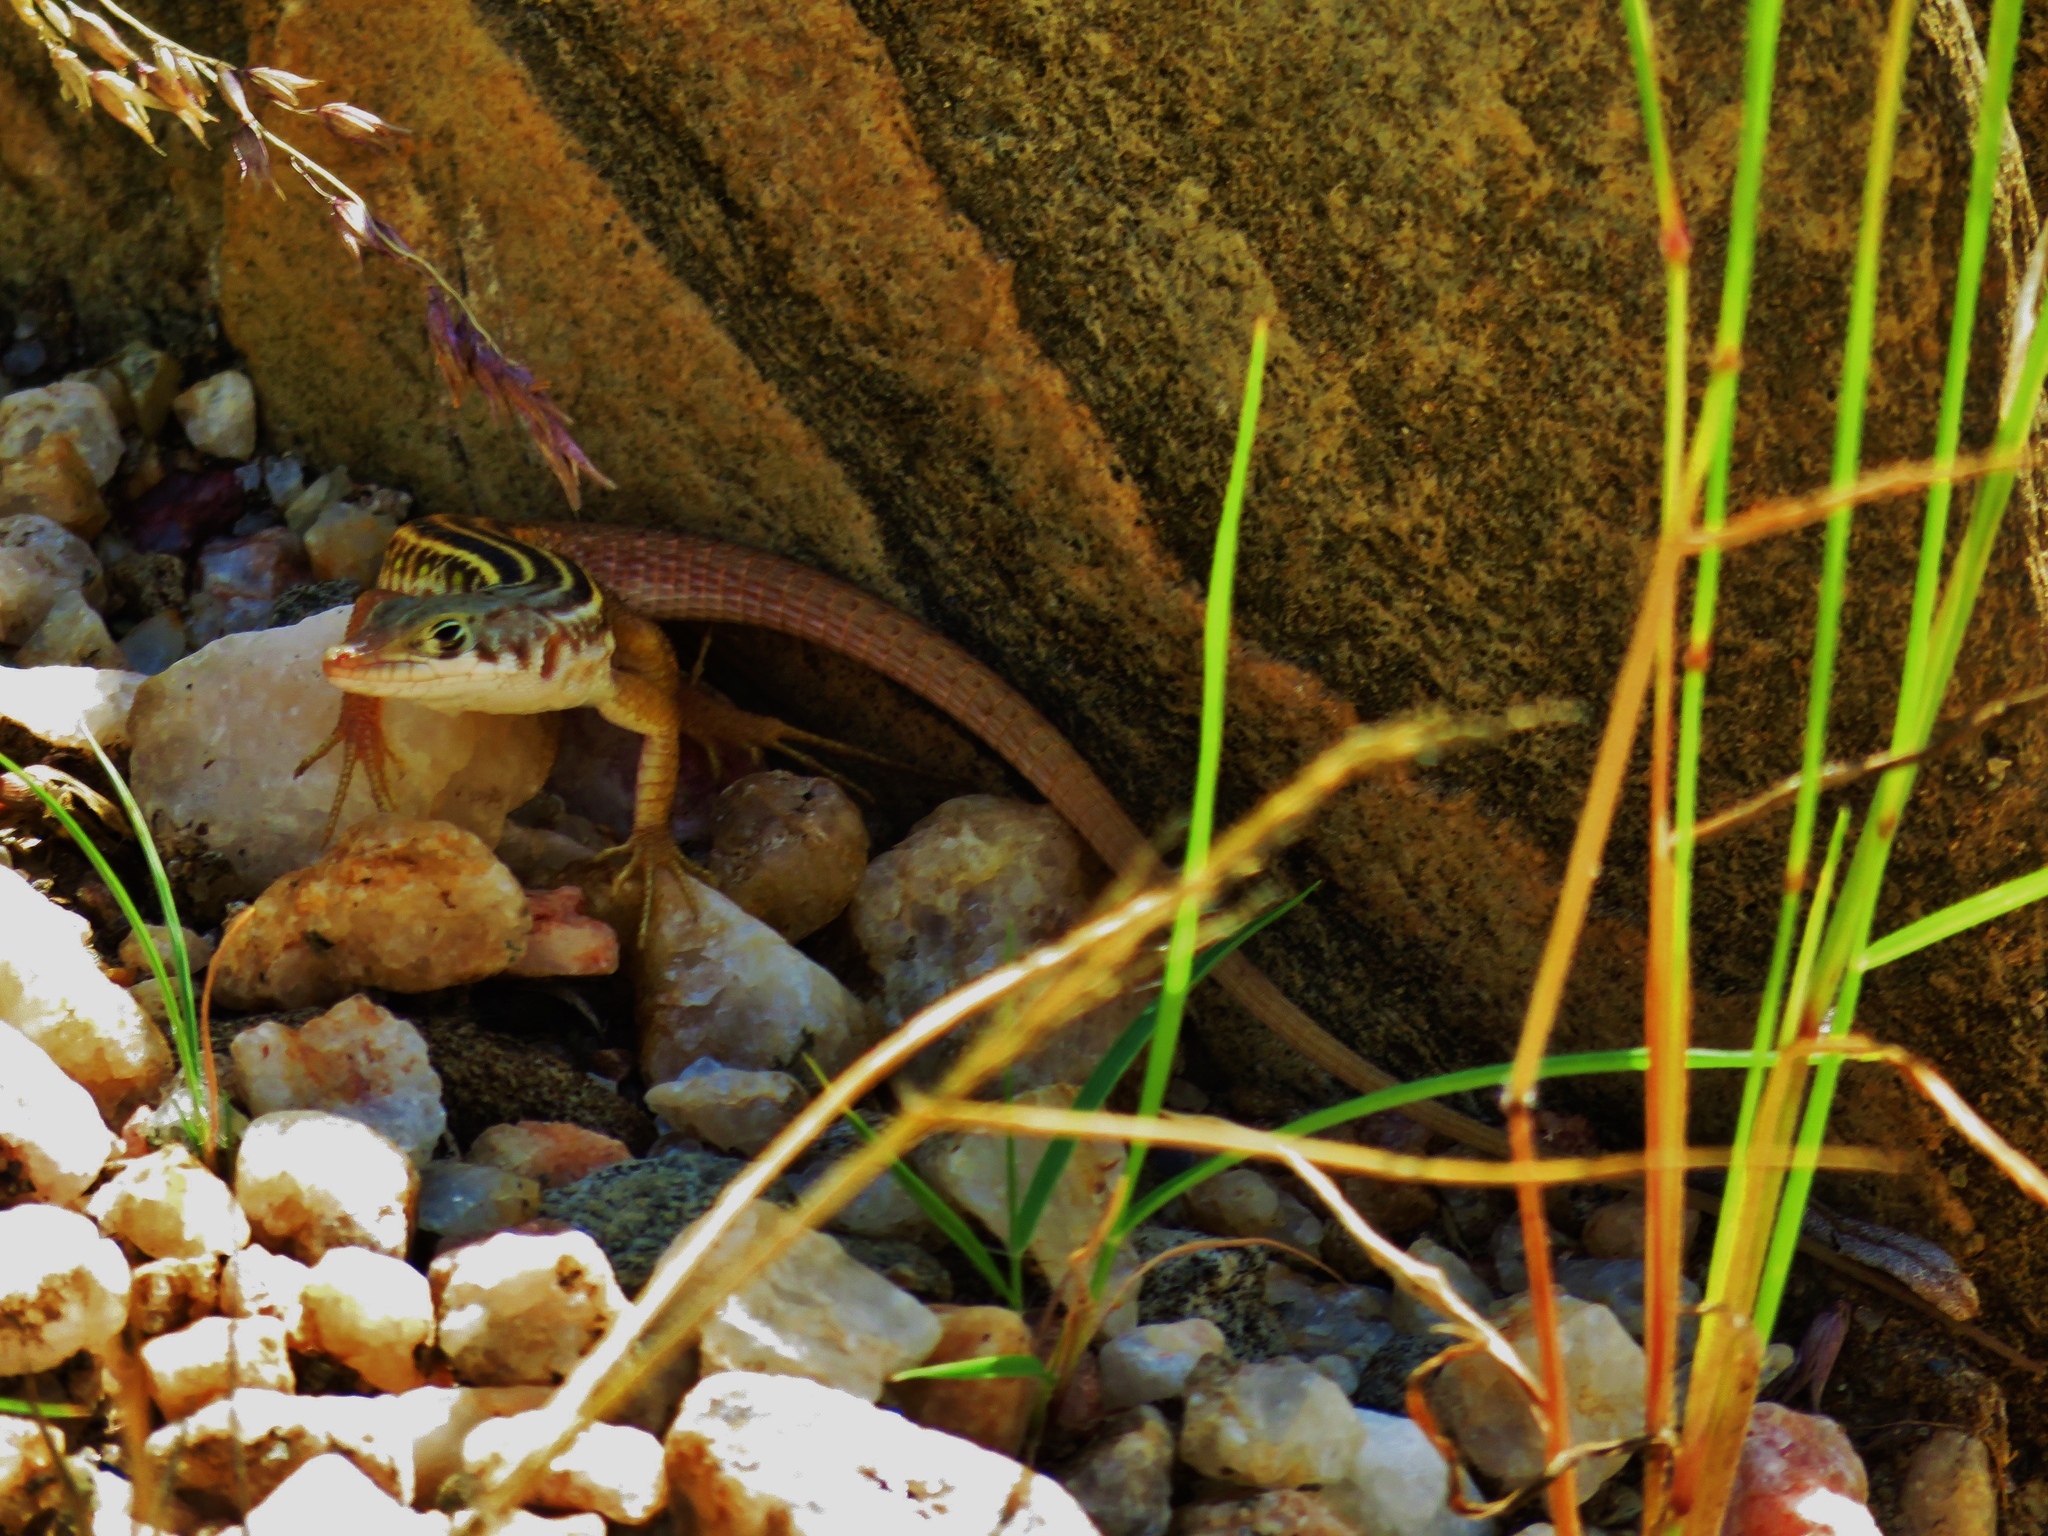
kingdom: Animalia
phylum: Chordata
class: Squamata
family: Lacertidae
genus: Pedioplanis
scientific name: Pedioplanis mayeri
